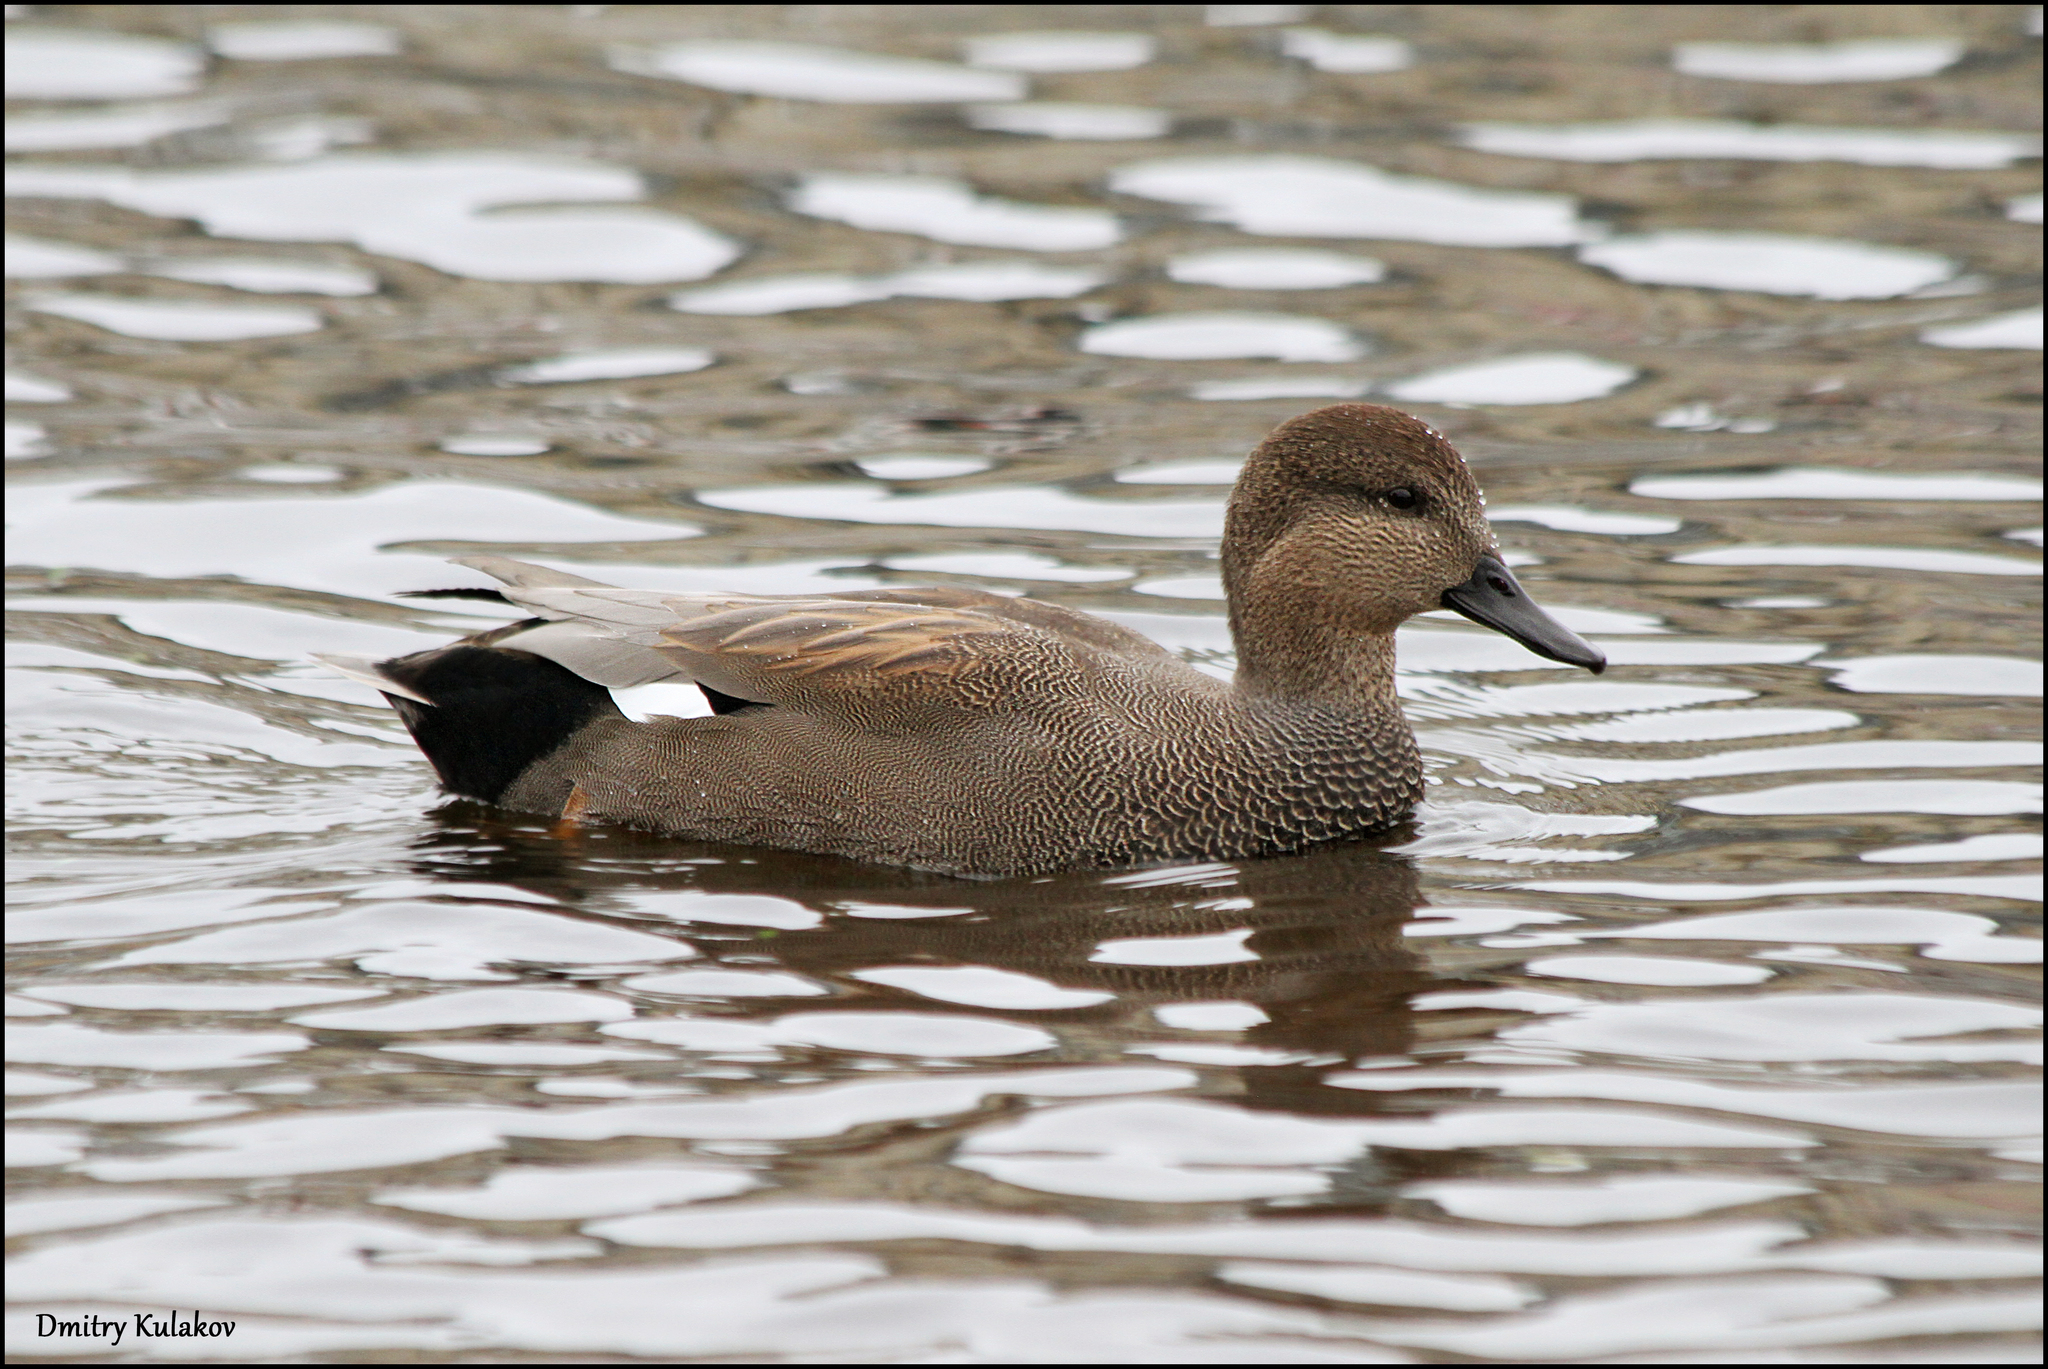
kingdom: Animalia
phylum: Chordata
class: Aves
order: Anseriformes
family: Anatidae
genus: Mareca
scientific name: Mareca strepera
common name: Gadwall
